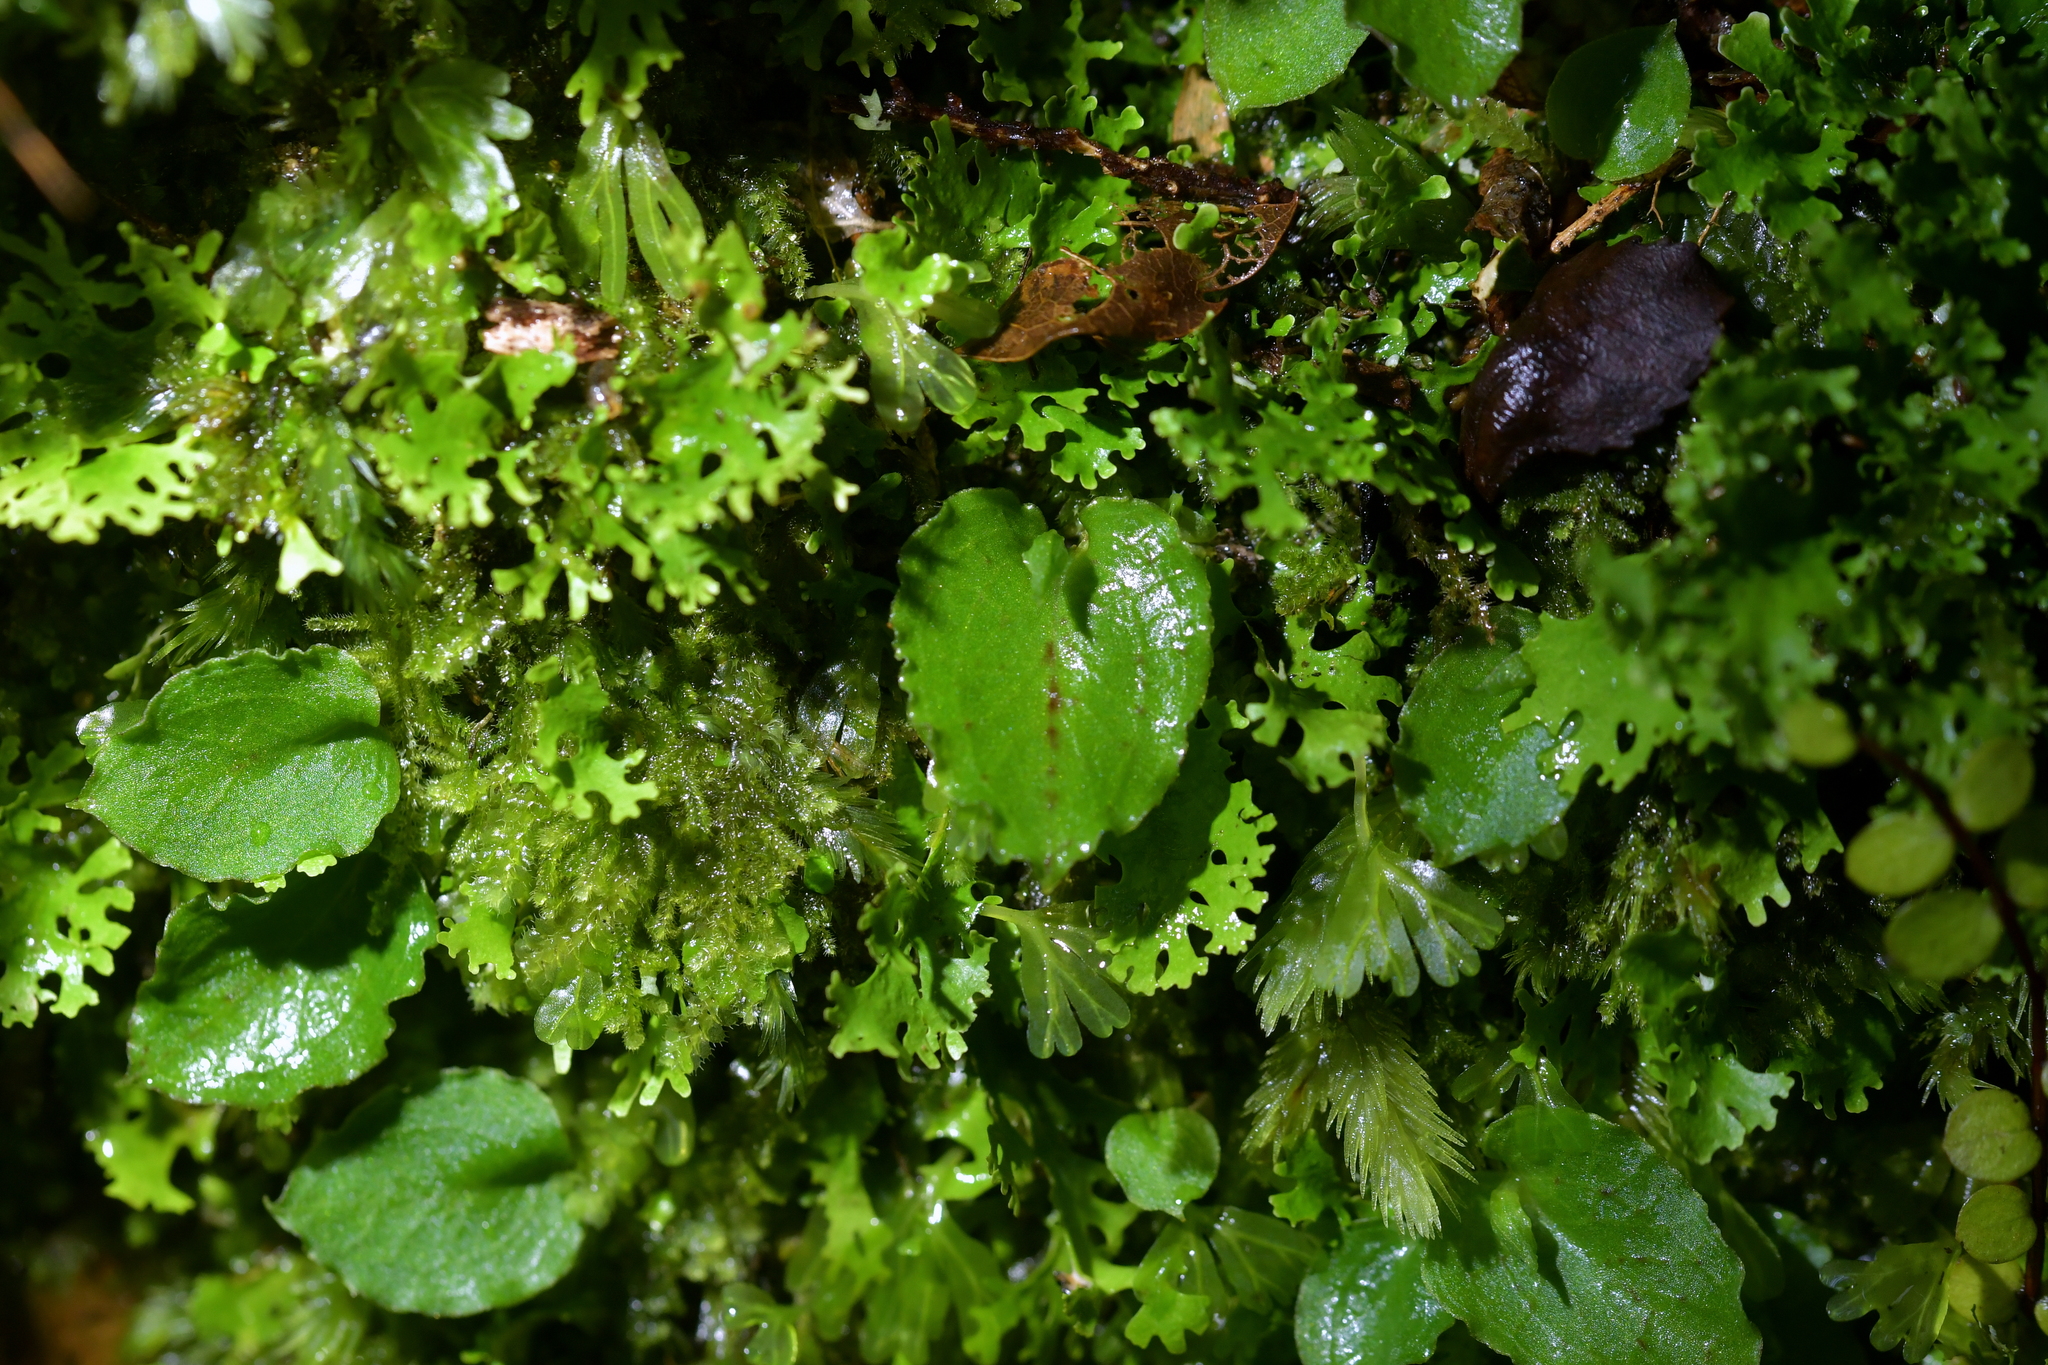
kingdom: Plantae
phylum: Tracheophyta
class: Liliopsida
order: Asparagales
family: Orchidaceae
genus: Corybas
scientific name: Corybas oblongus
